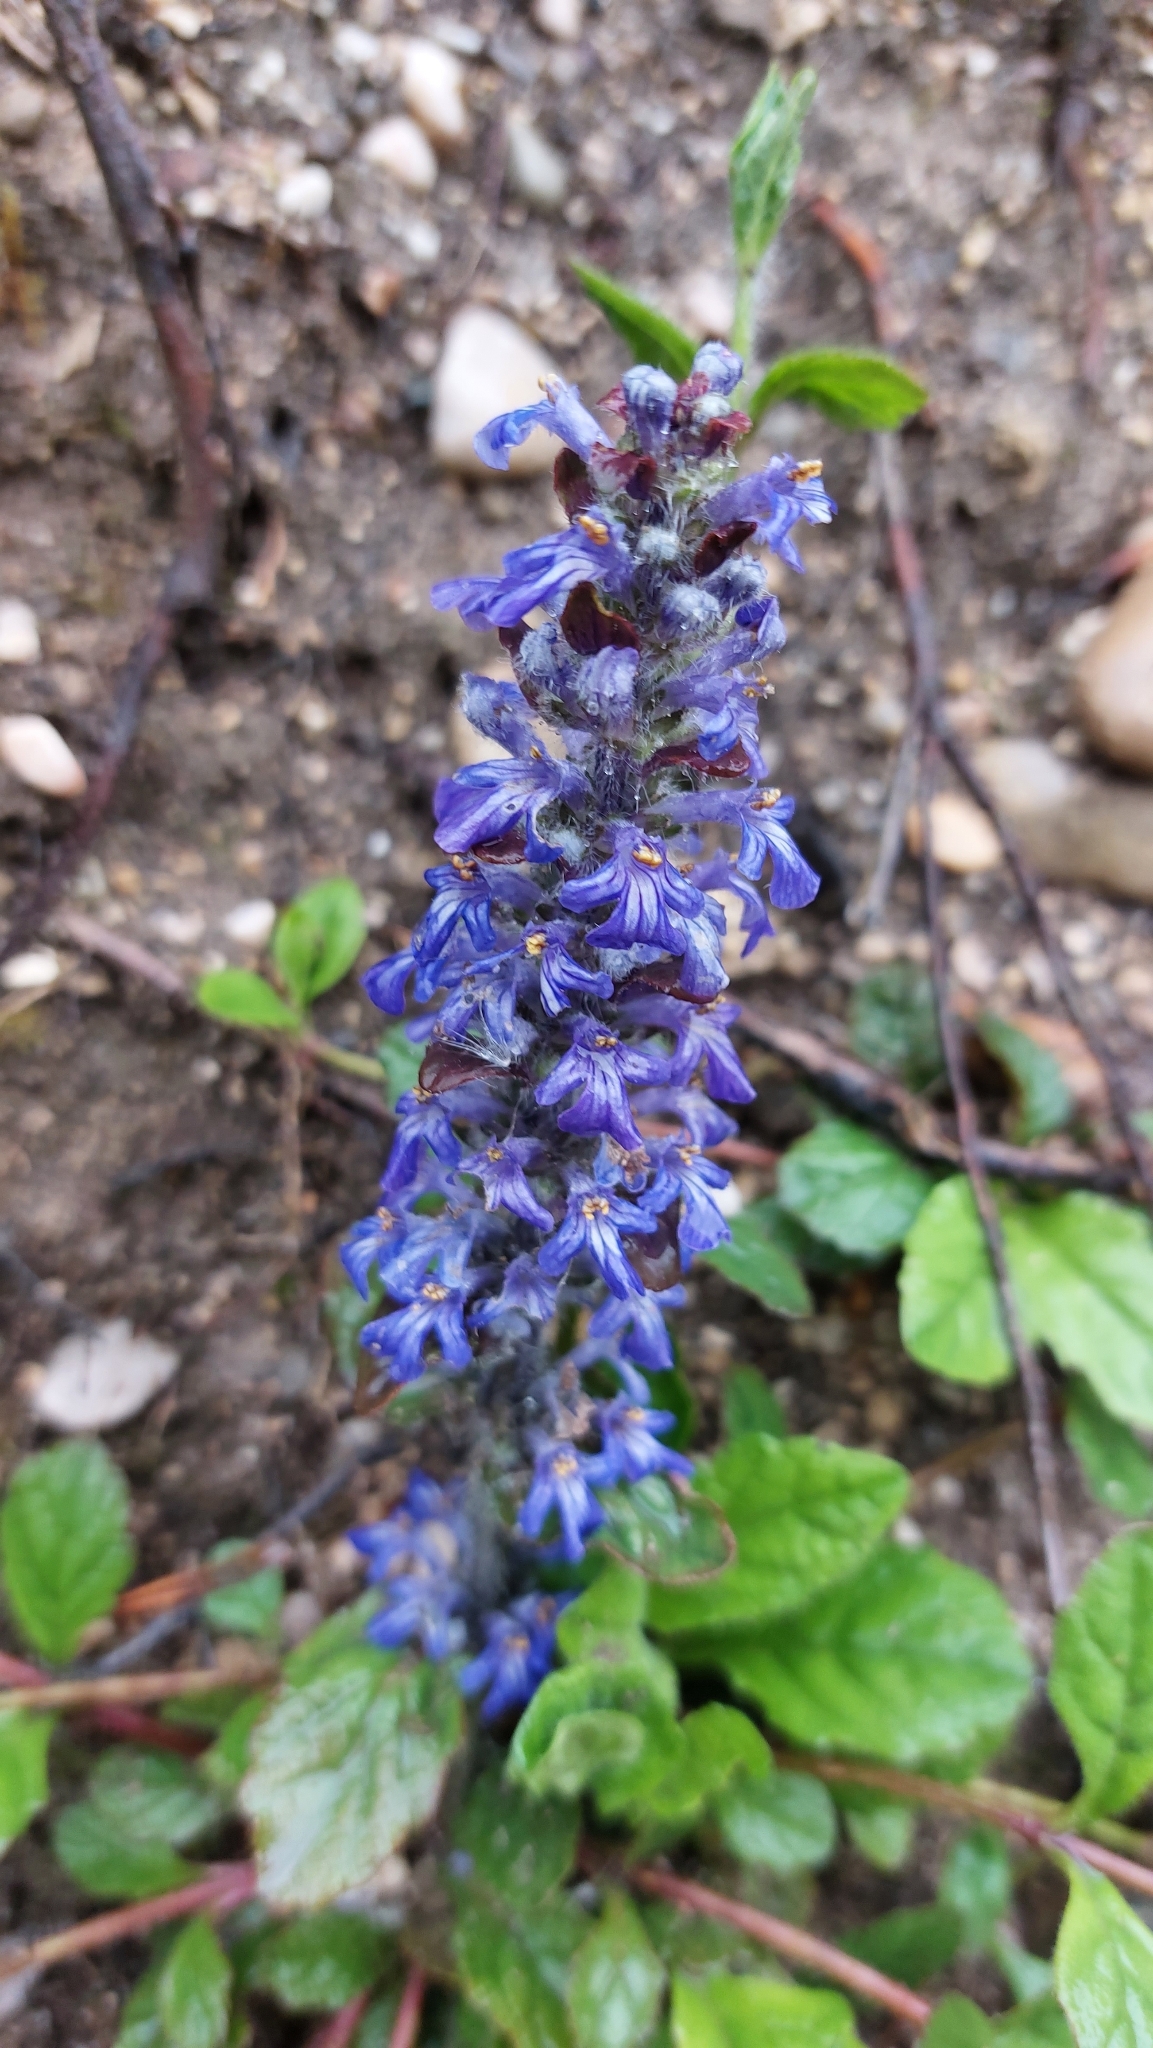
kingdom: Plantae
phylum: Tracheophyta
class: Magnoliopsida
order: Lamiales
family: Lamiaceae
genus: Ajuga
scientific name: Ajuga reptans
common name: Bugle
